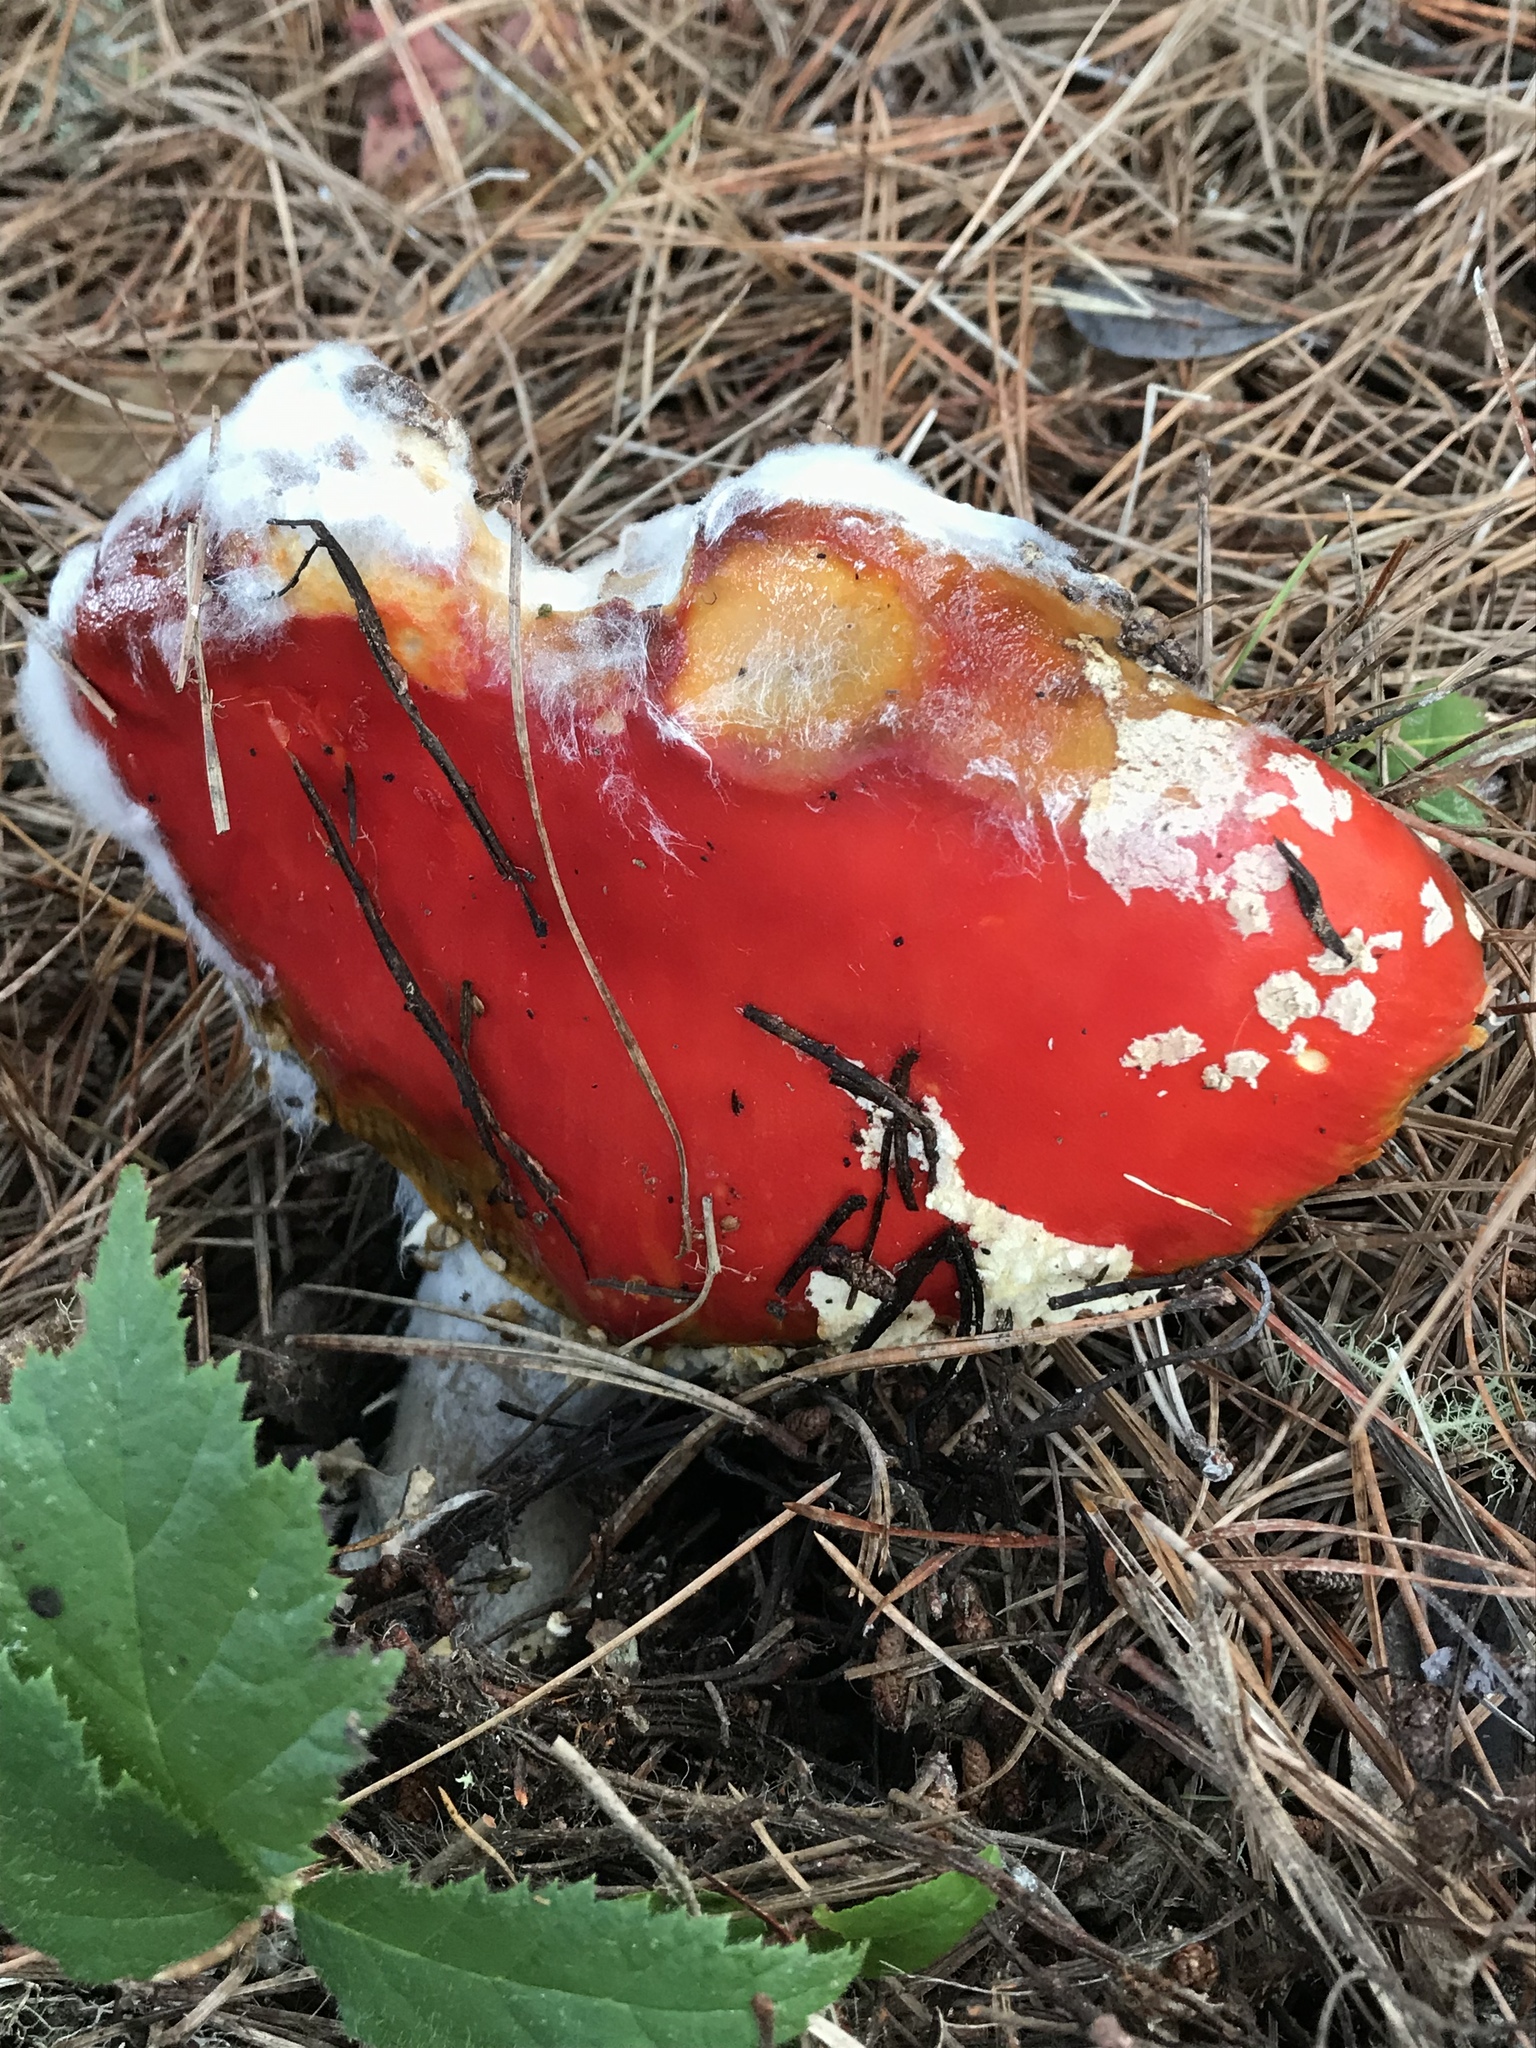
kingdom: Fungi
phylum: Basidiomycota
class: Agaricomycetes
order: Agaricales
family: Amanitaceae
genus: Amanita
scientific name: Amanita muscaria
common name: Fly agaric
